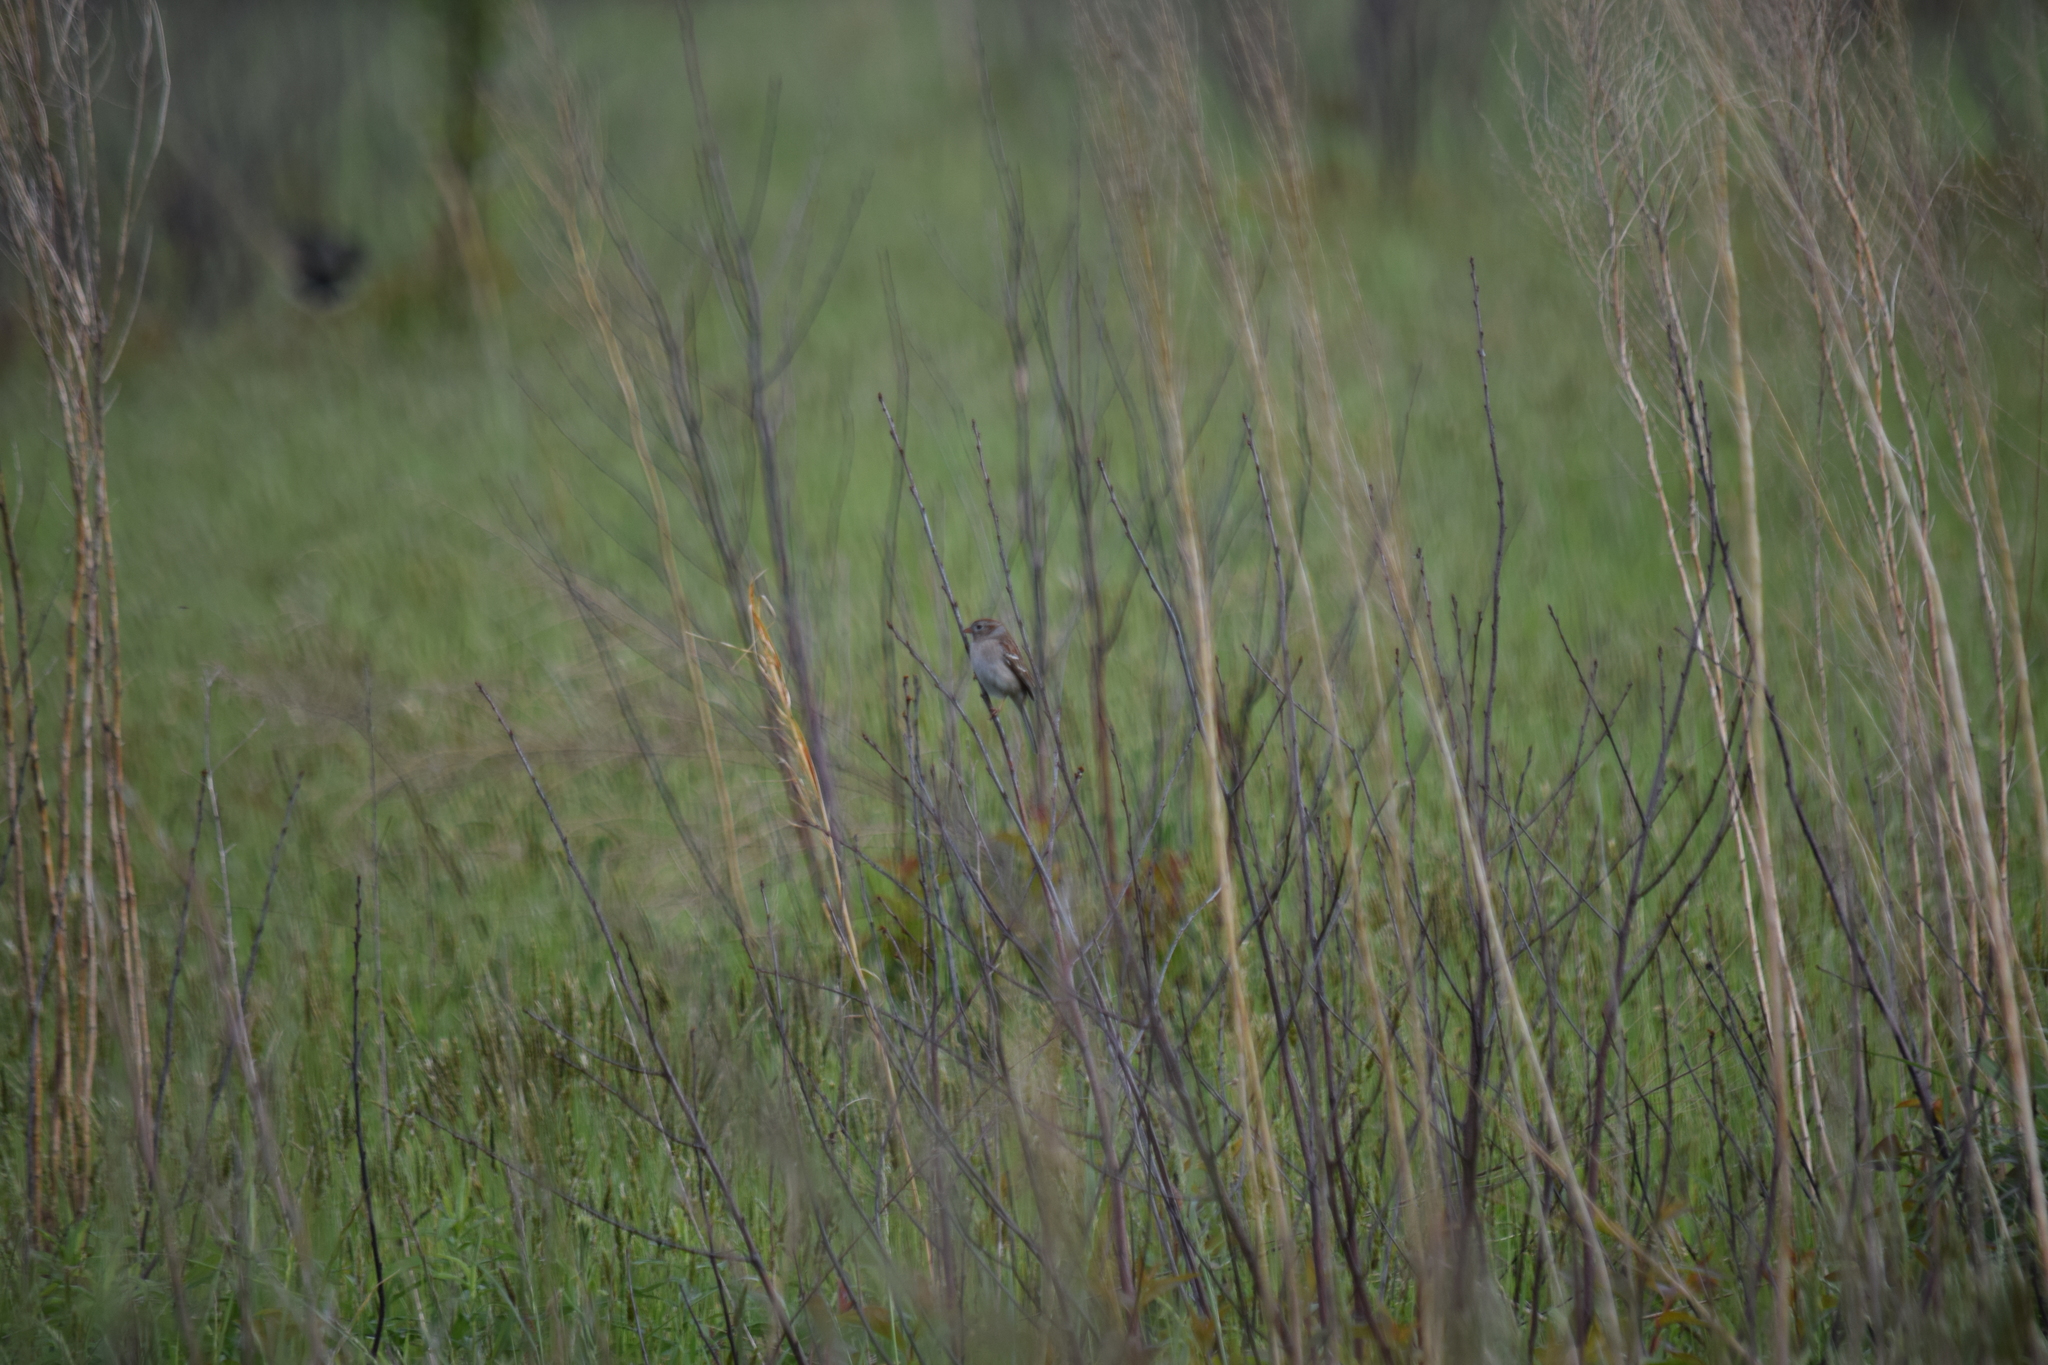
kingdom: Animalia
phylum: Chordata
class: Aves
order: Passeriformes
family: Passerellidae
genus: Spizella
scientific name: Spizella pusilla
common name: Field sparrow
